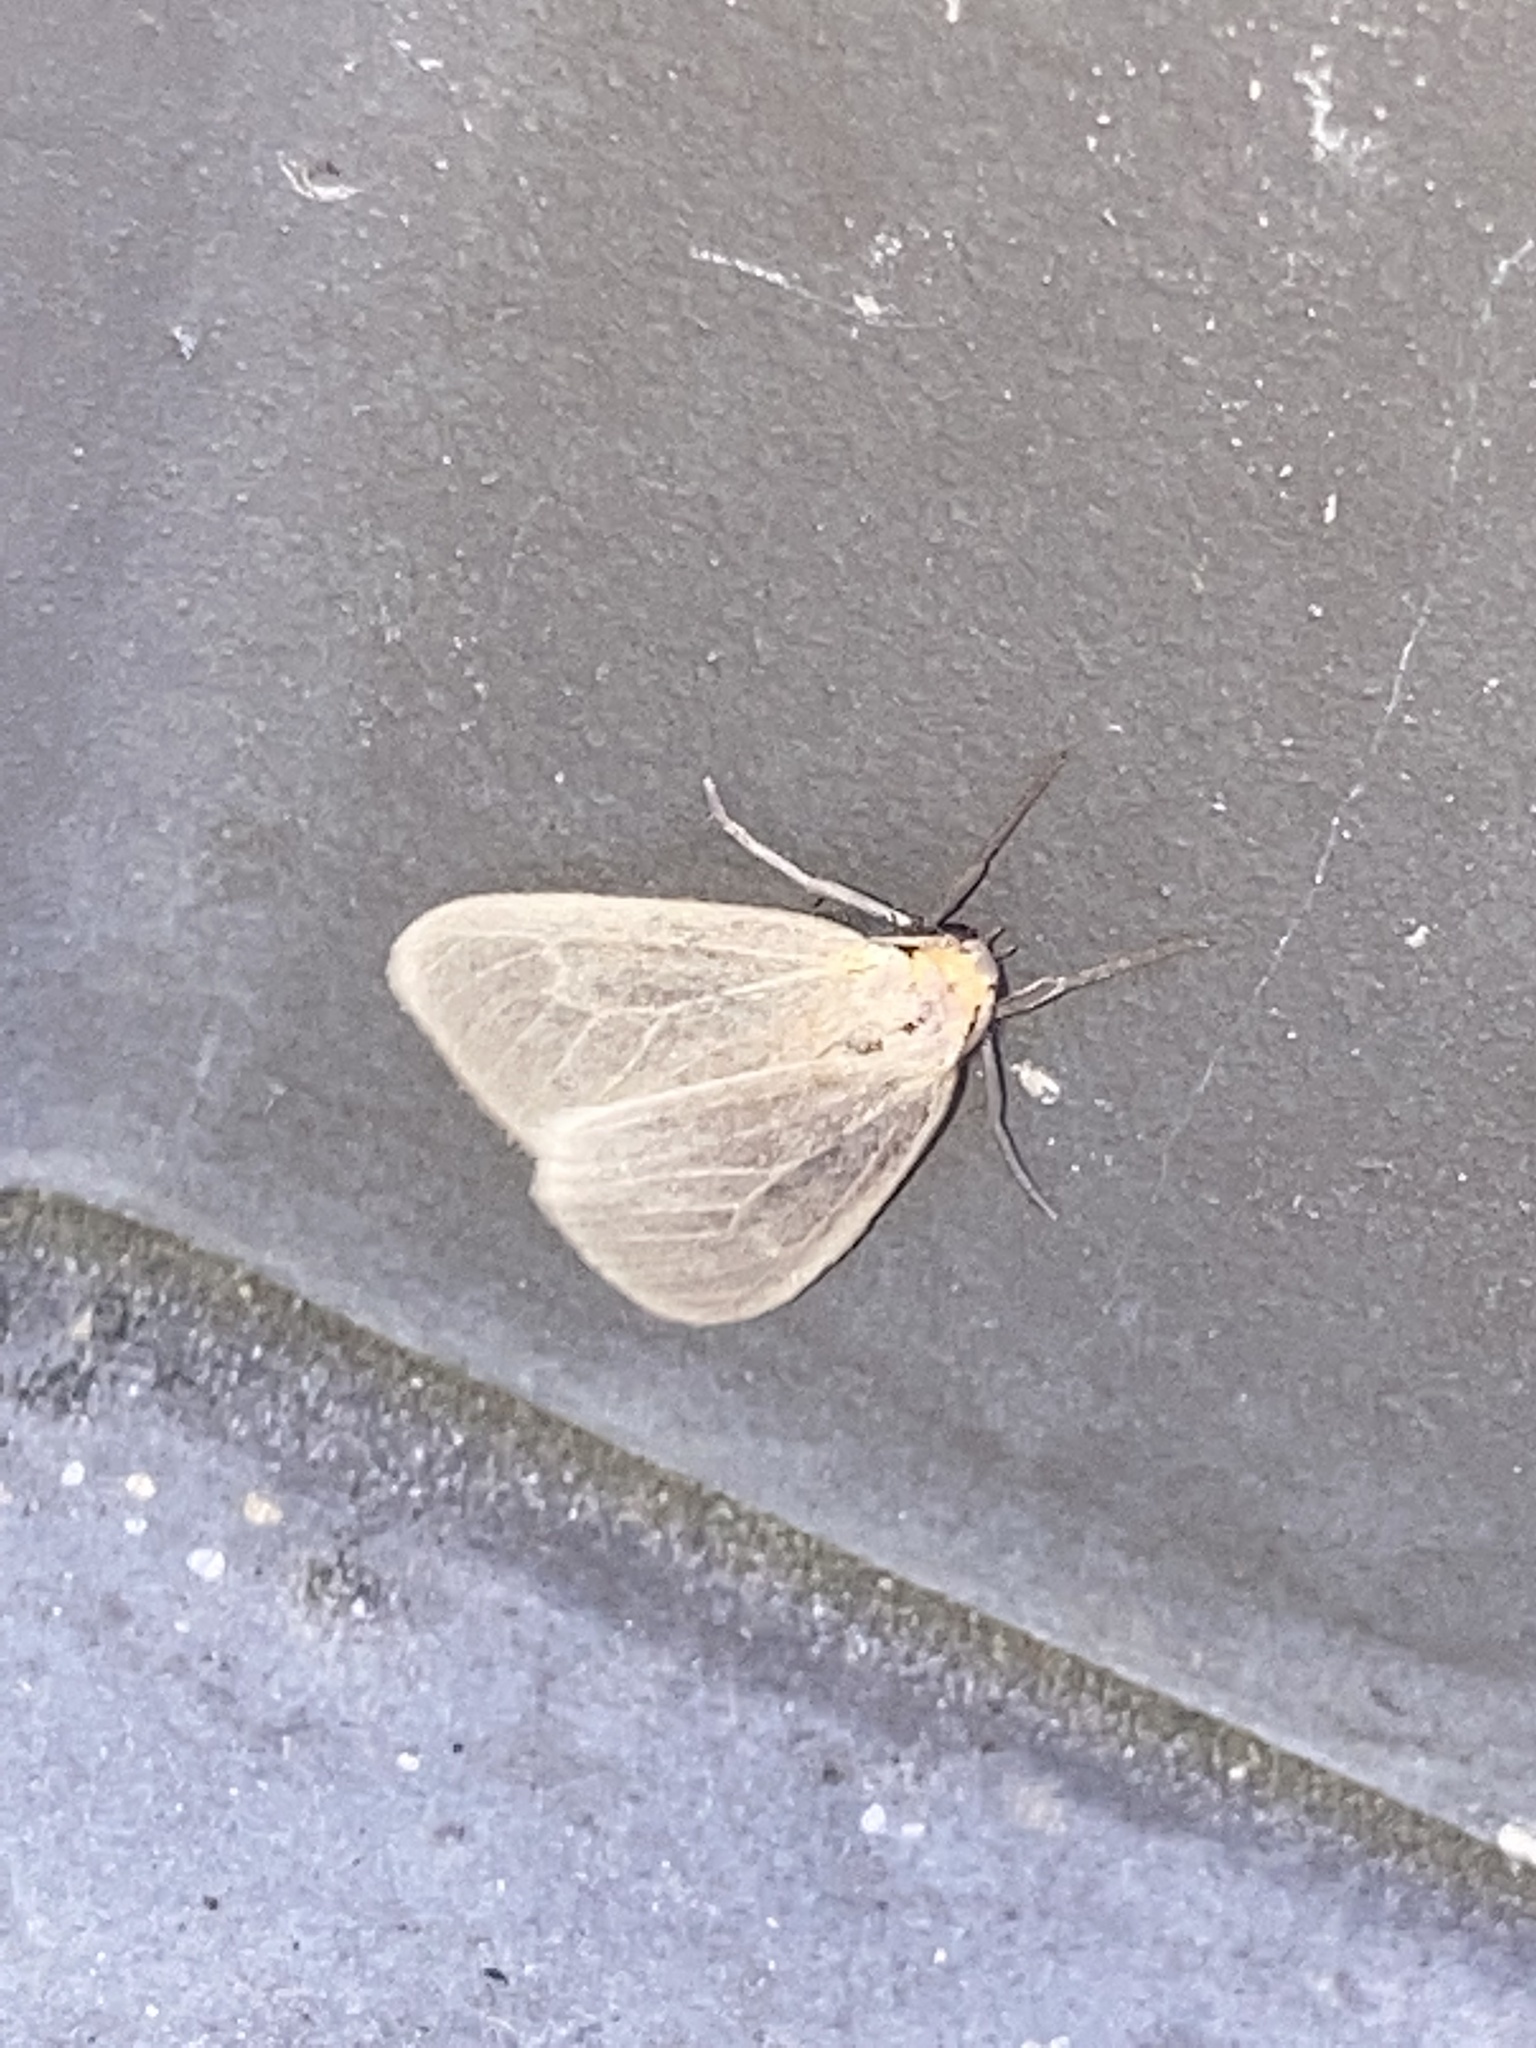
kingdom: Animalia
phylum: Arthropoda
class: Insecta
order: Lepidoptera
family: Erebidae
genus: Pagara
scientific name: Pagara simplex
